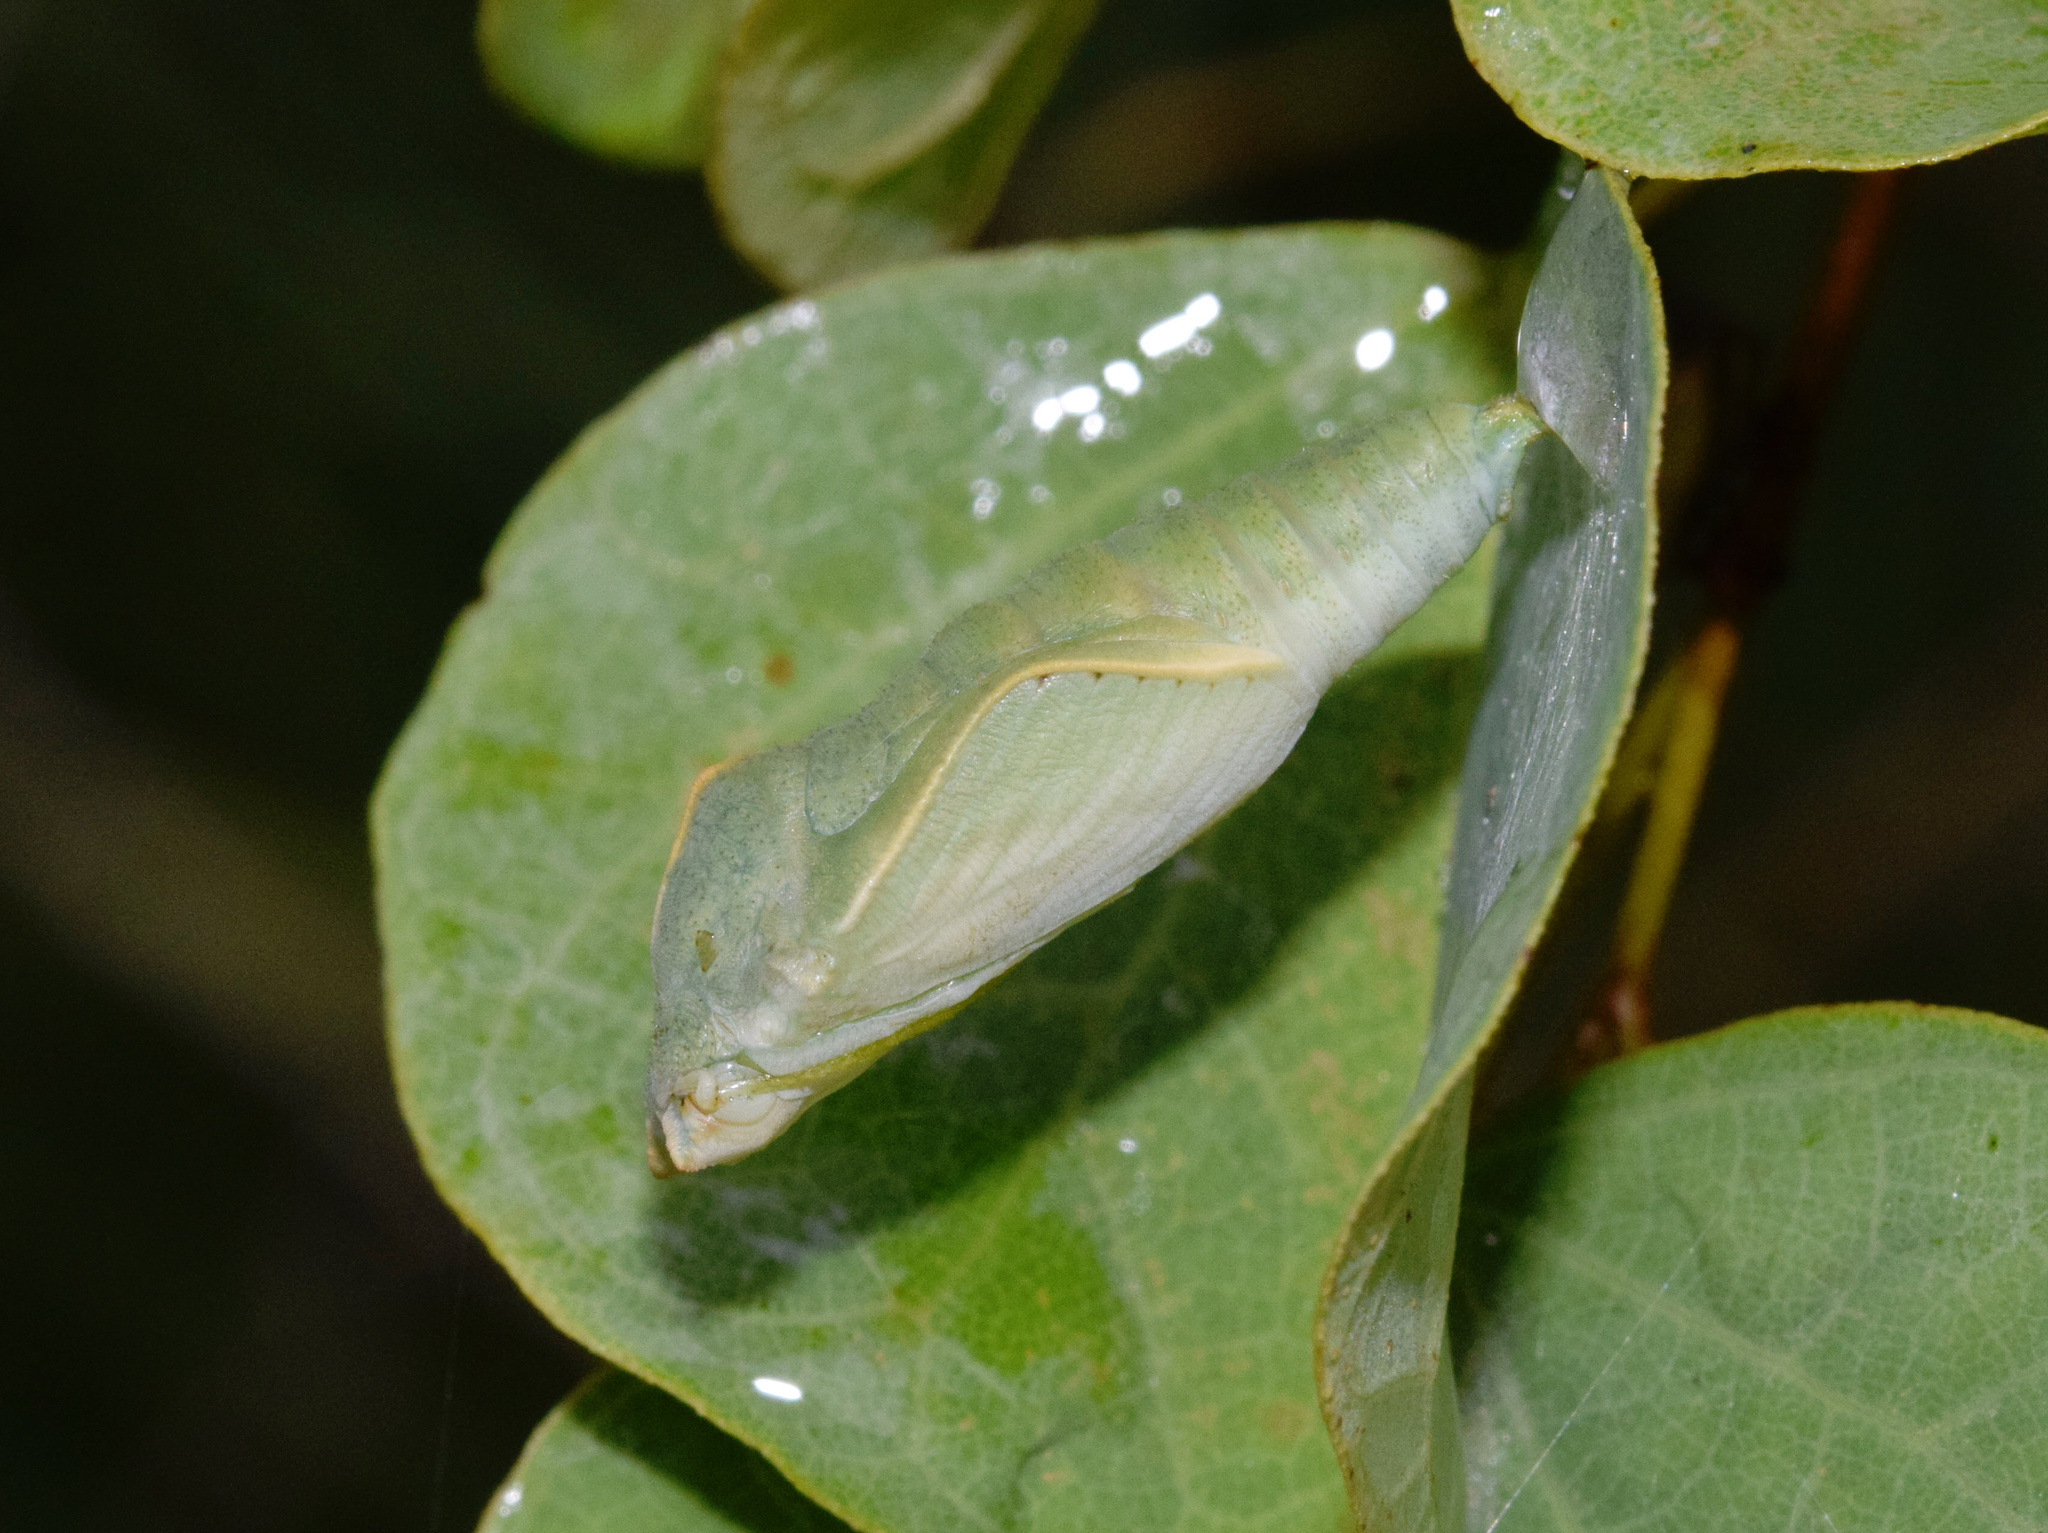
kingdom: Animalia
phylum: Arthropoda
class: Insecta
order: Lepidoptera
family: Nymphalidae
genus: Asterope
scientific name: Asterope boisduvali
